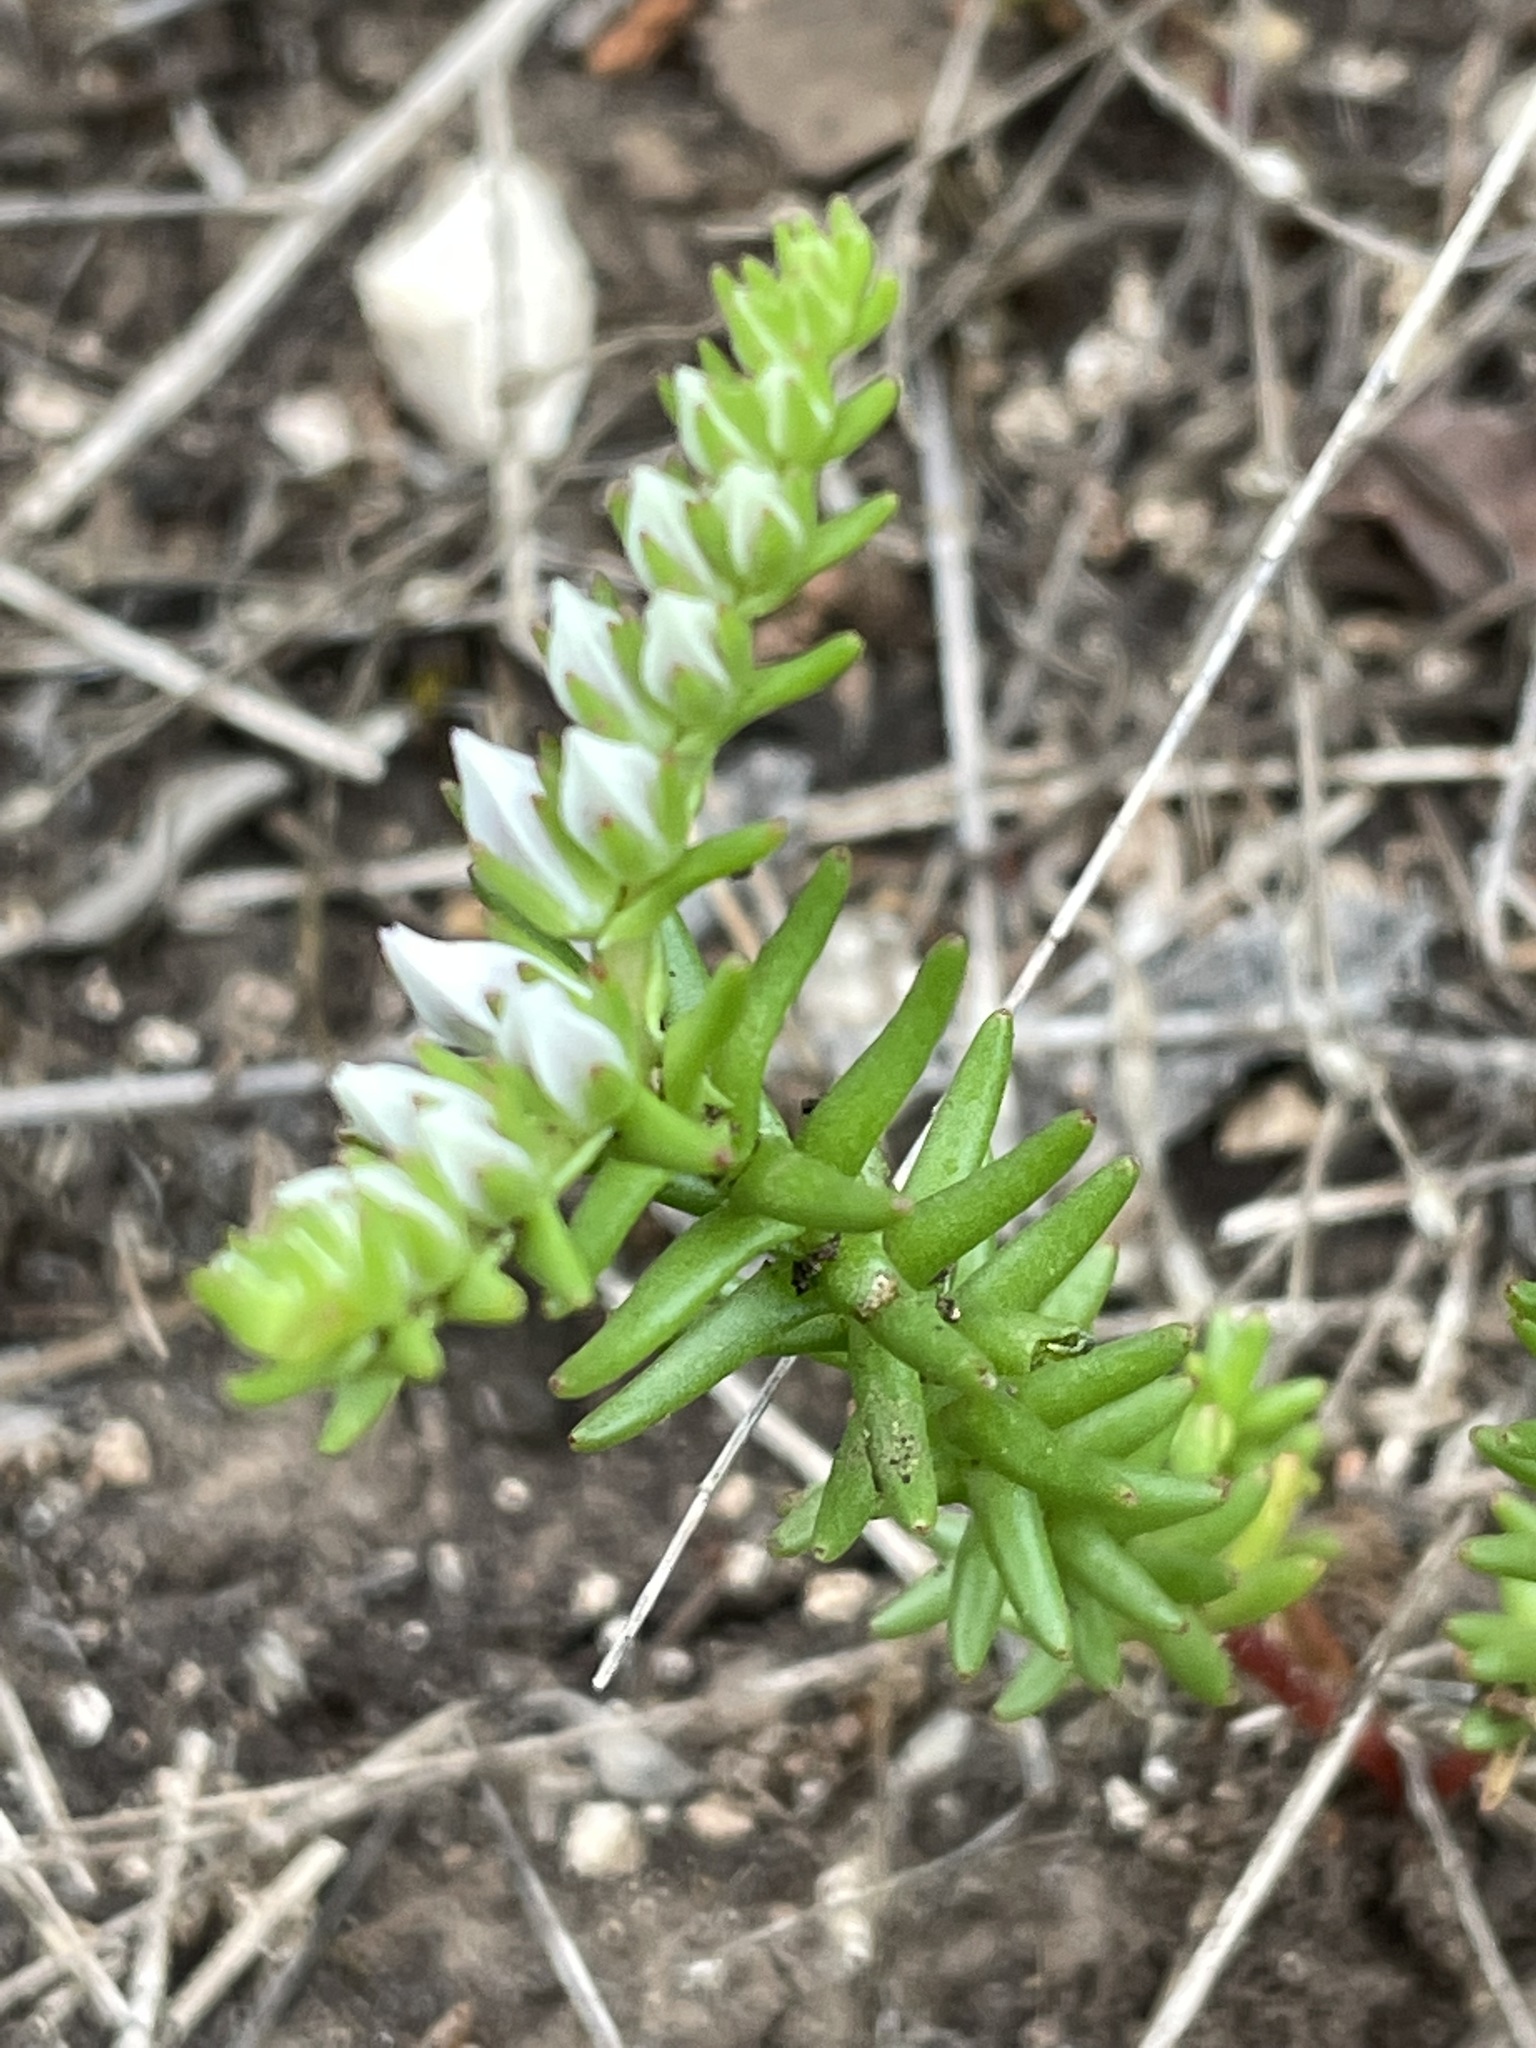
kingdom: Plantae
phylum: Tracheophyta
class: Magnoliopsida
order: Saxifragales
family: Crassulaceae
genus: Sedum
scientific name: Sedum pulchellum
